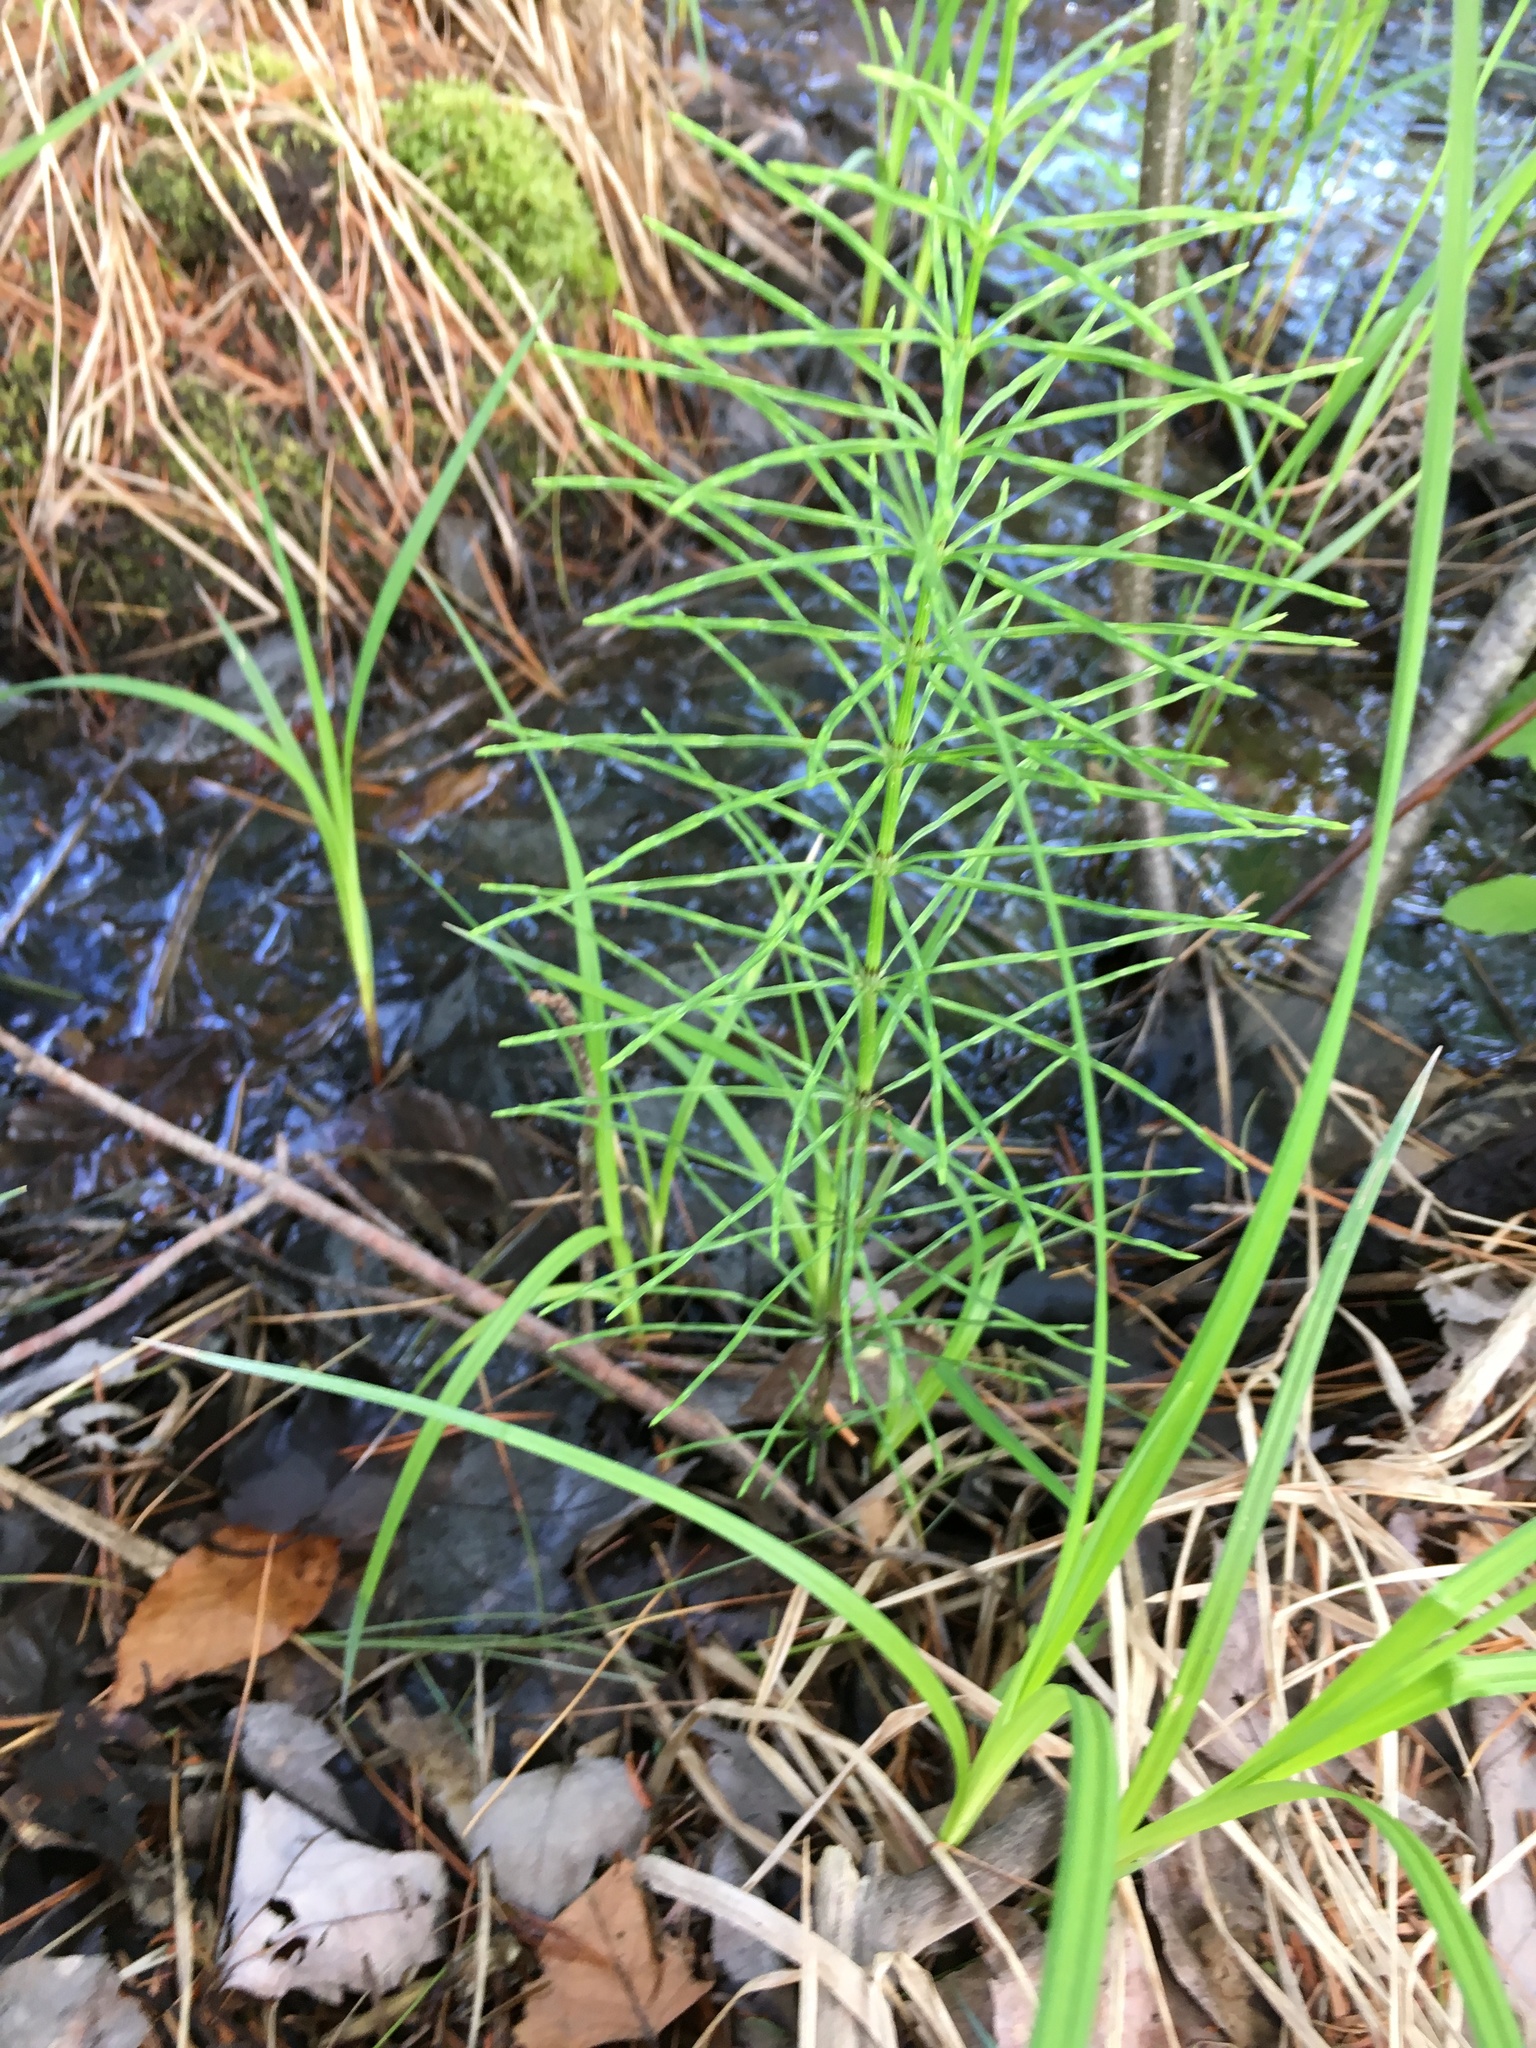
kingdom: Plantae
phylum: Tracheophyta
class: Polypodiopsida
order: Equisetales
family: Equisetaceae
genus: Equisetum
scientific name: Equisetum fluviatile
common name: Water horsetail
